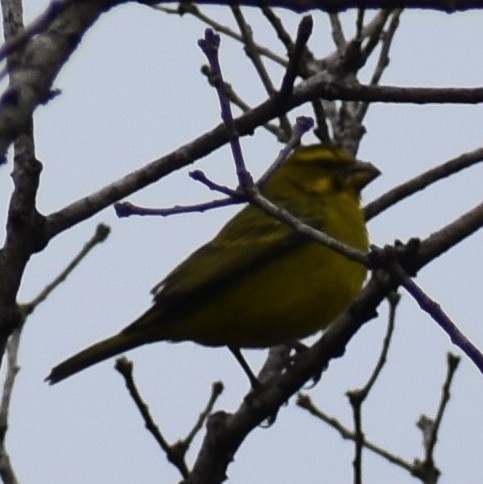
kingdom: Animalia
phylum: Chordata
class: Aves
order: Passeriformes
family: Fringillidae
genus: Crithagra
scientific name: Crithagra sulphurata
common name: Brimstone canary
